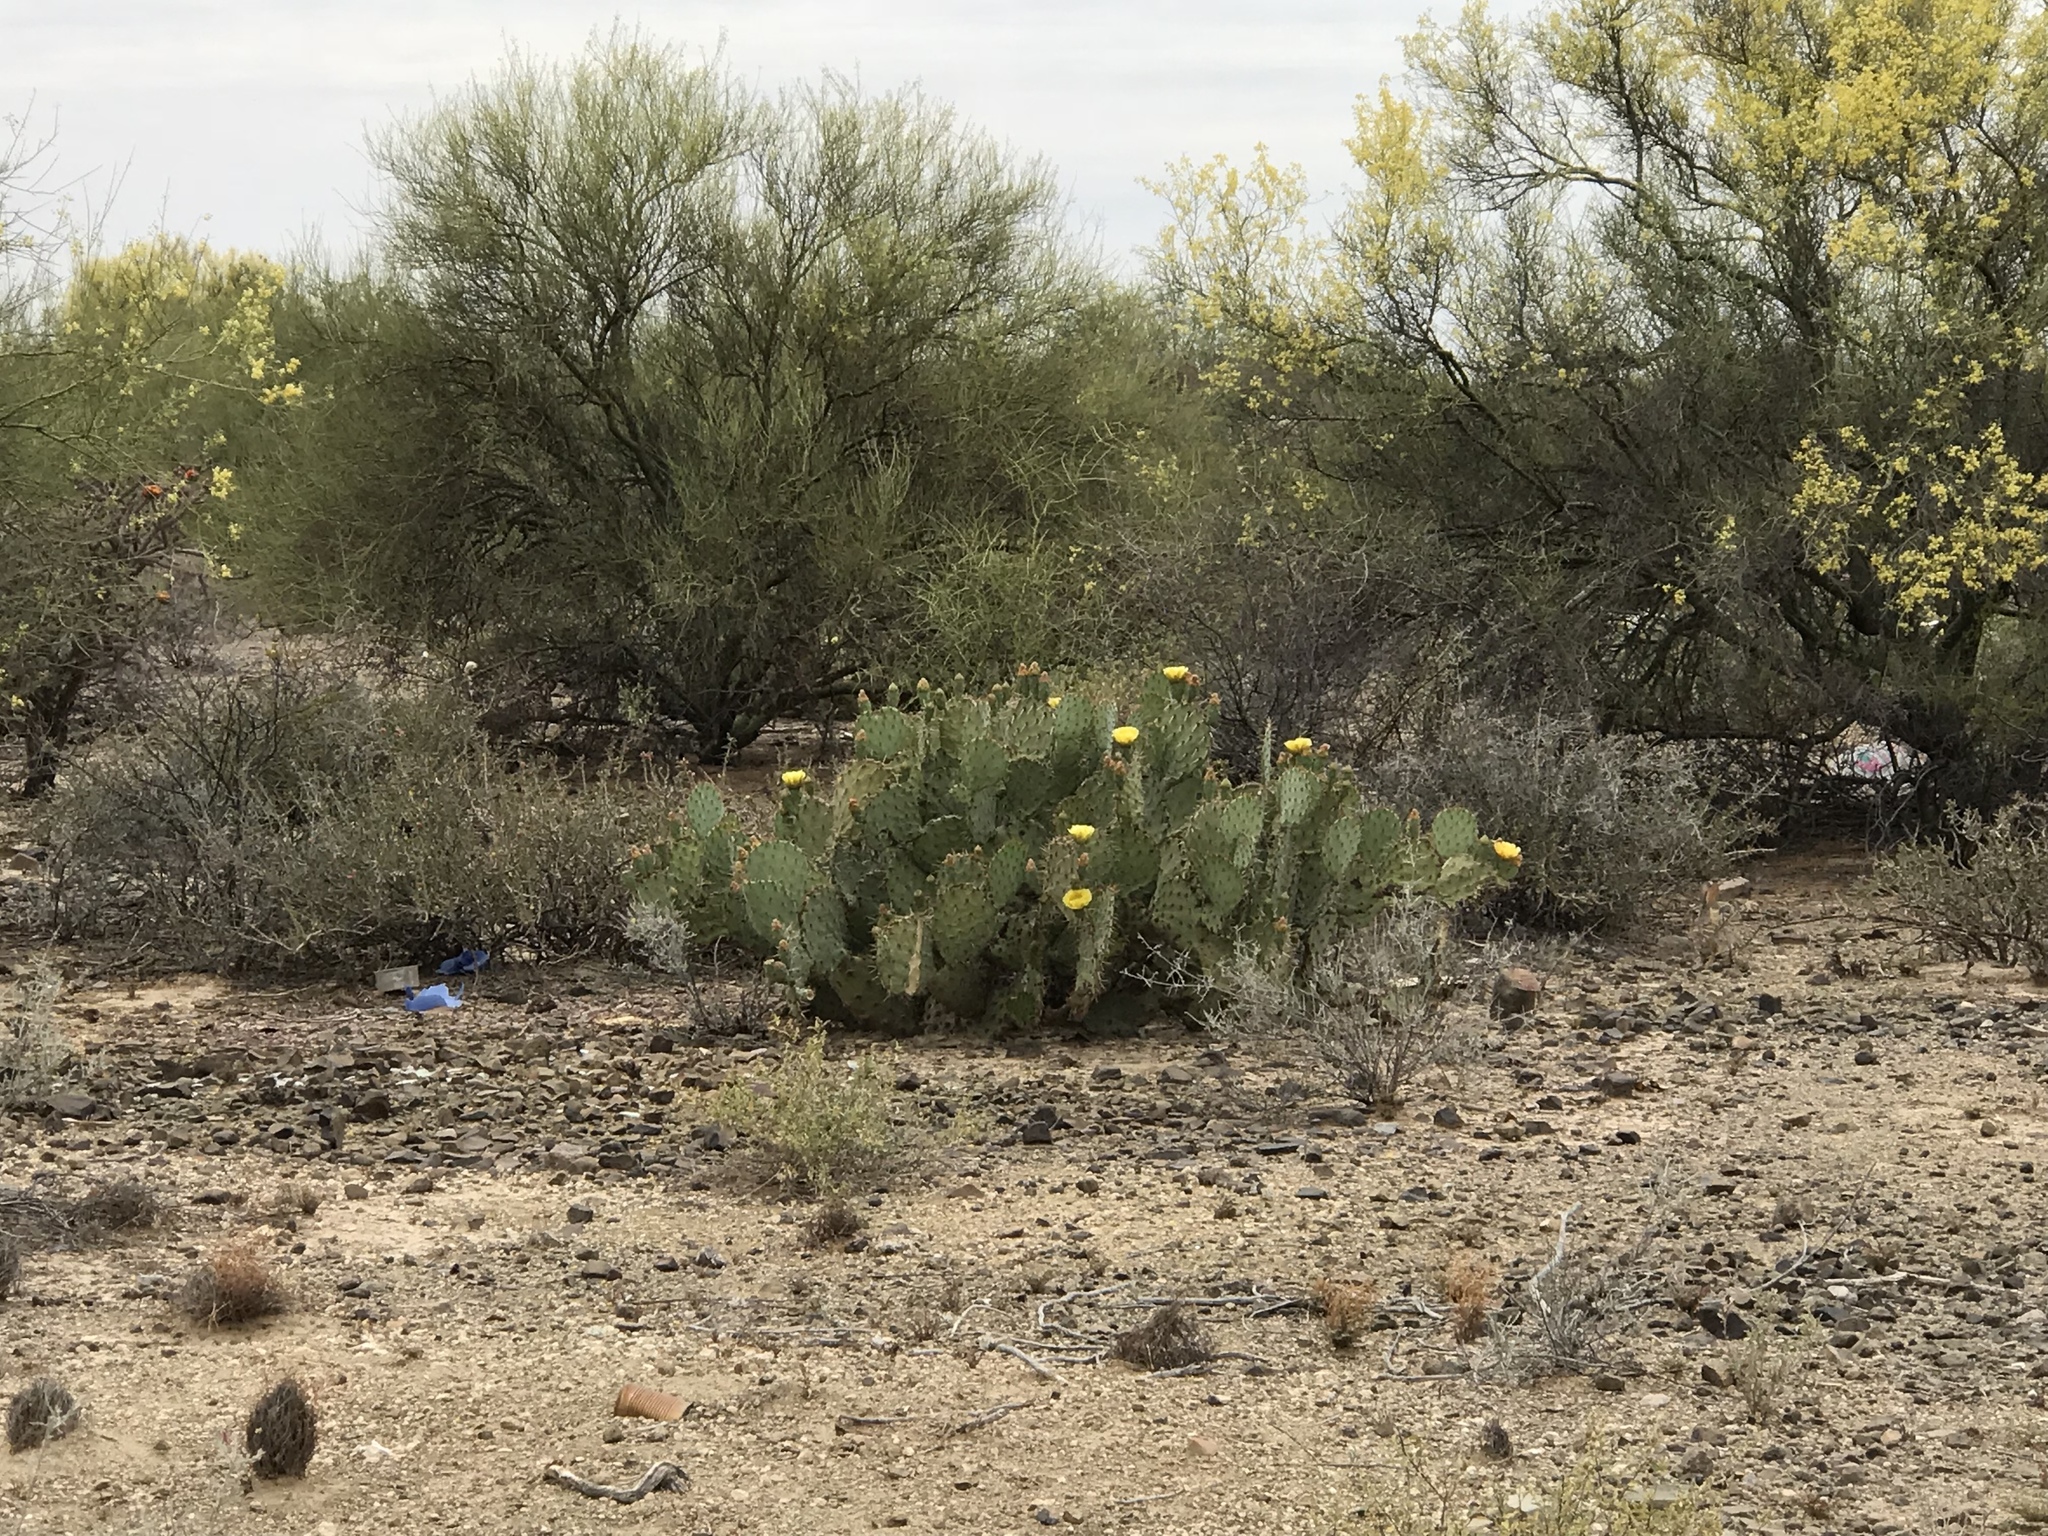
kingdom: Plantae
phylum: Tracheophyta
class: Magnoliopsida
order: Caryophyllales
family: Cactaceae
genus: Opuntia
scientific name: Opuntia engelmannii
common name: Cactus-apple
